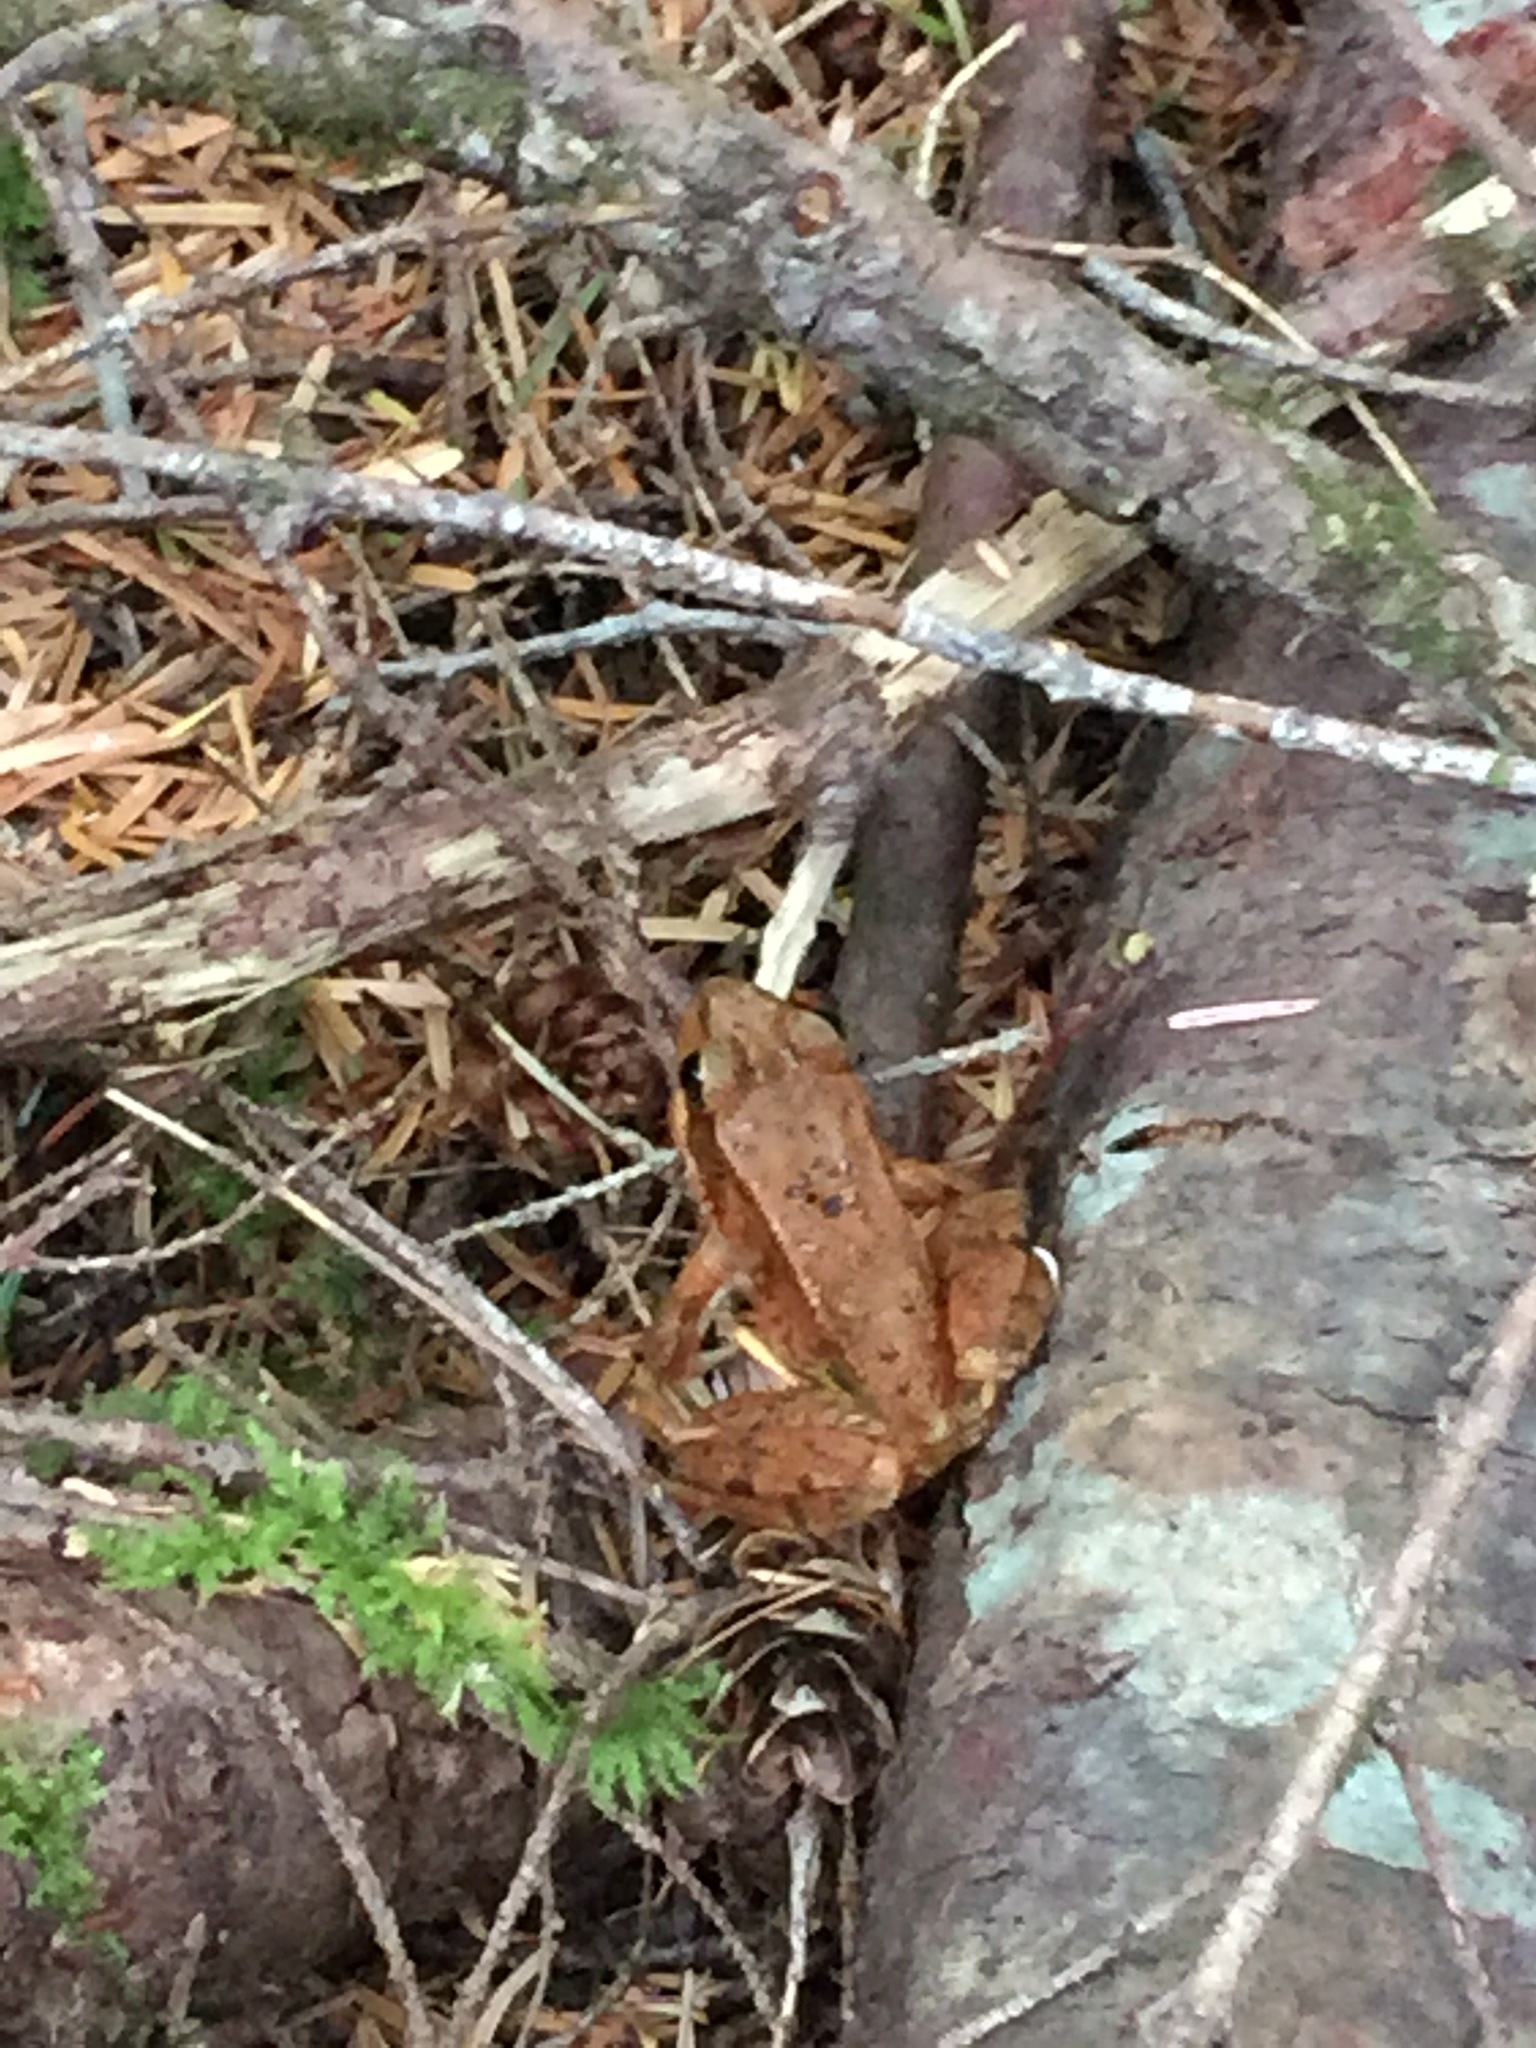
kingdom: Animalia
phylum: Chordata
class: Amphibia
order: Anura
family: Ranidae
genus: Rana
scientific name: Rana aurora
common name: Red-legged frog
